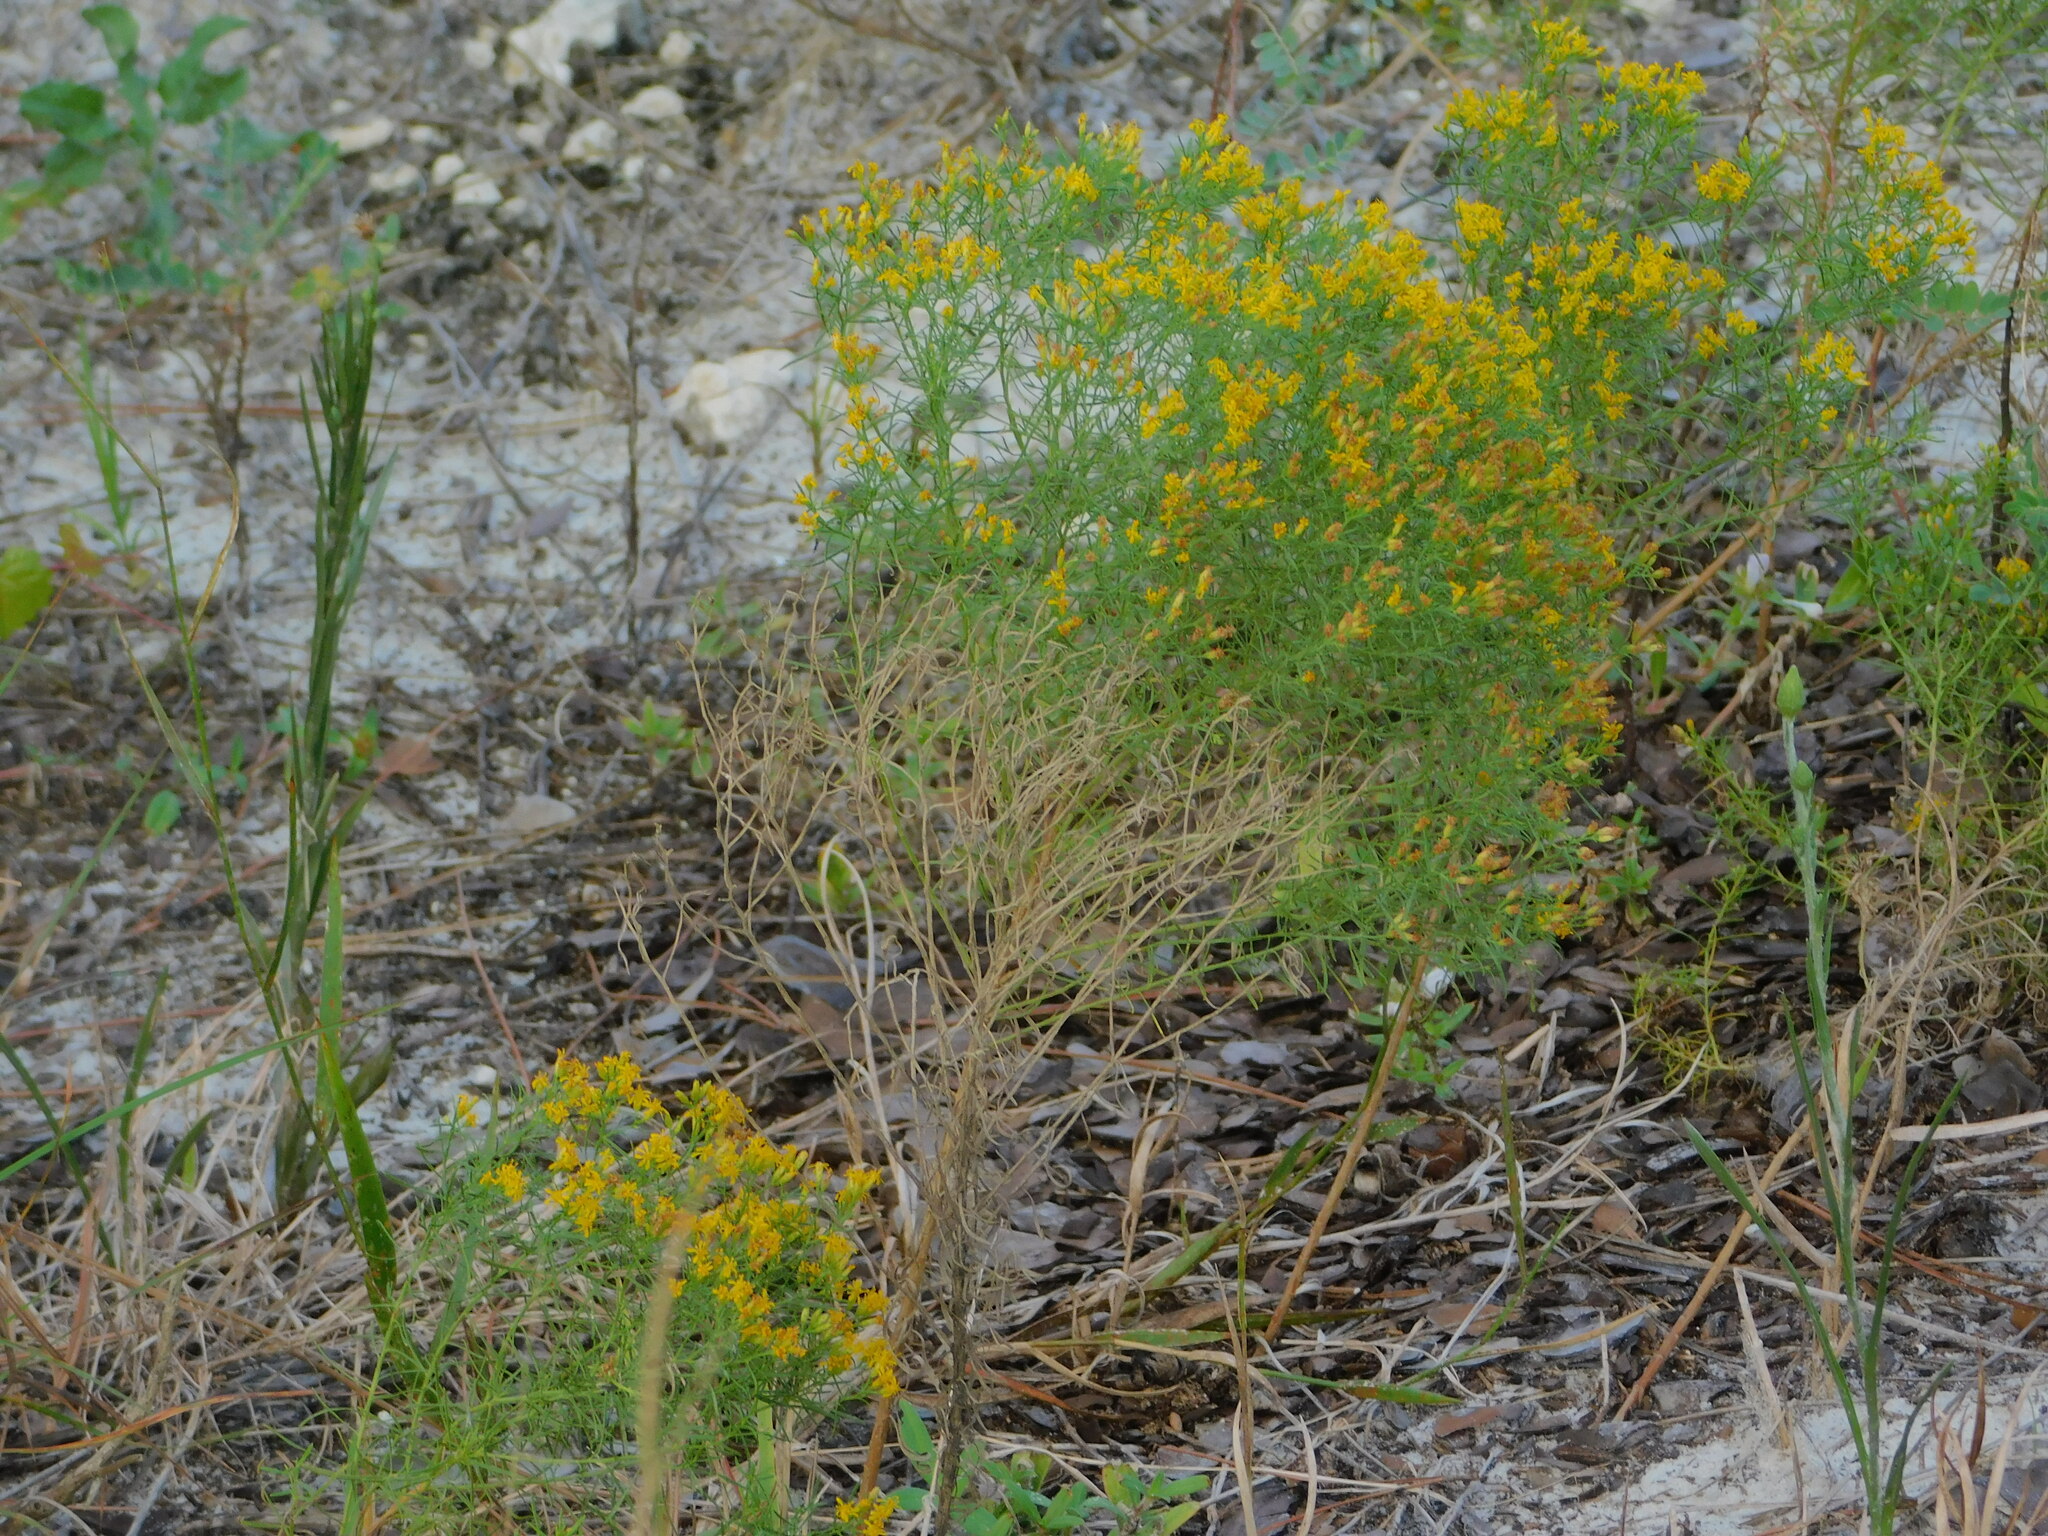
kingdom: Plantae
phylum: Tracheophyta
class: Magnoliopsida
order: Asterales
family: Asteraceae
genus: Euthamia
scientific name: Euthamia caroliniana
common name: Coastal plain goldentop
